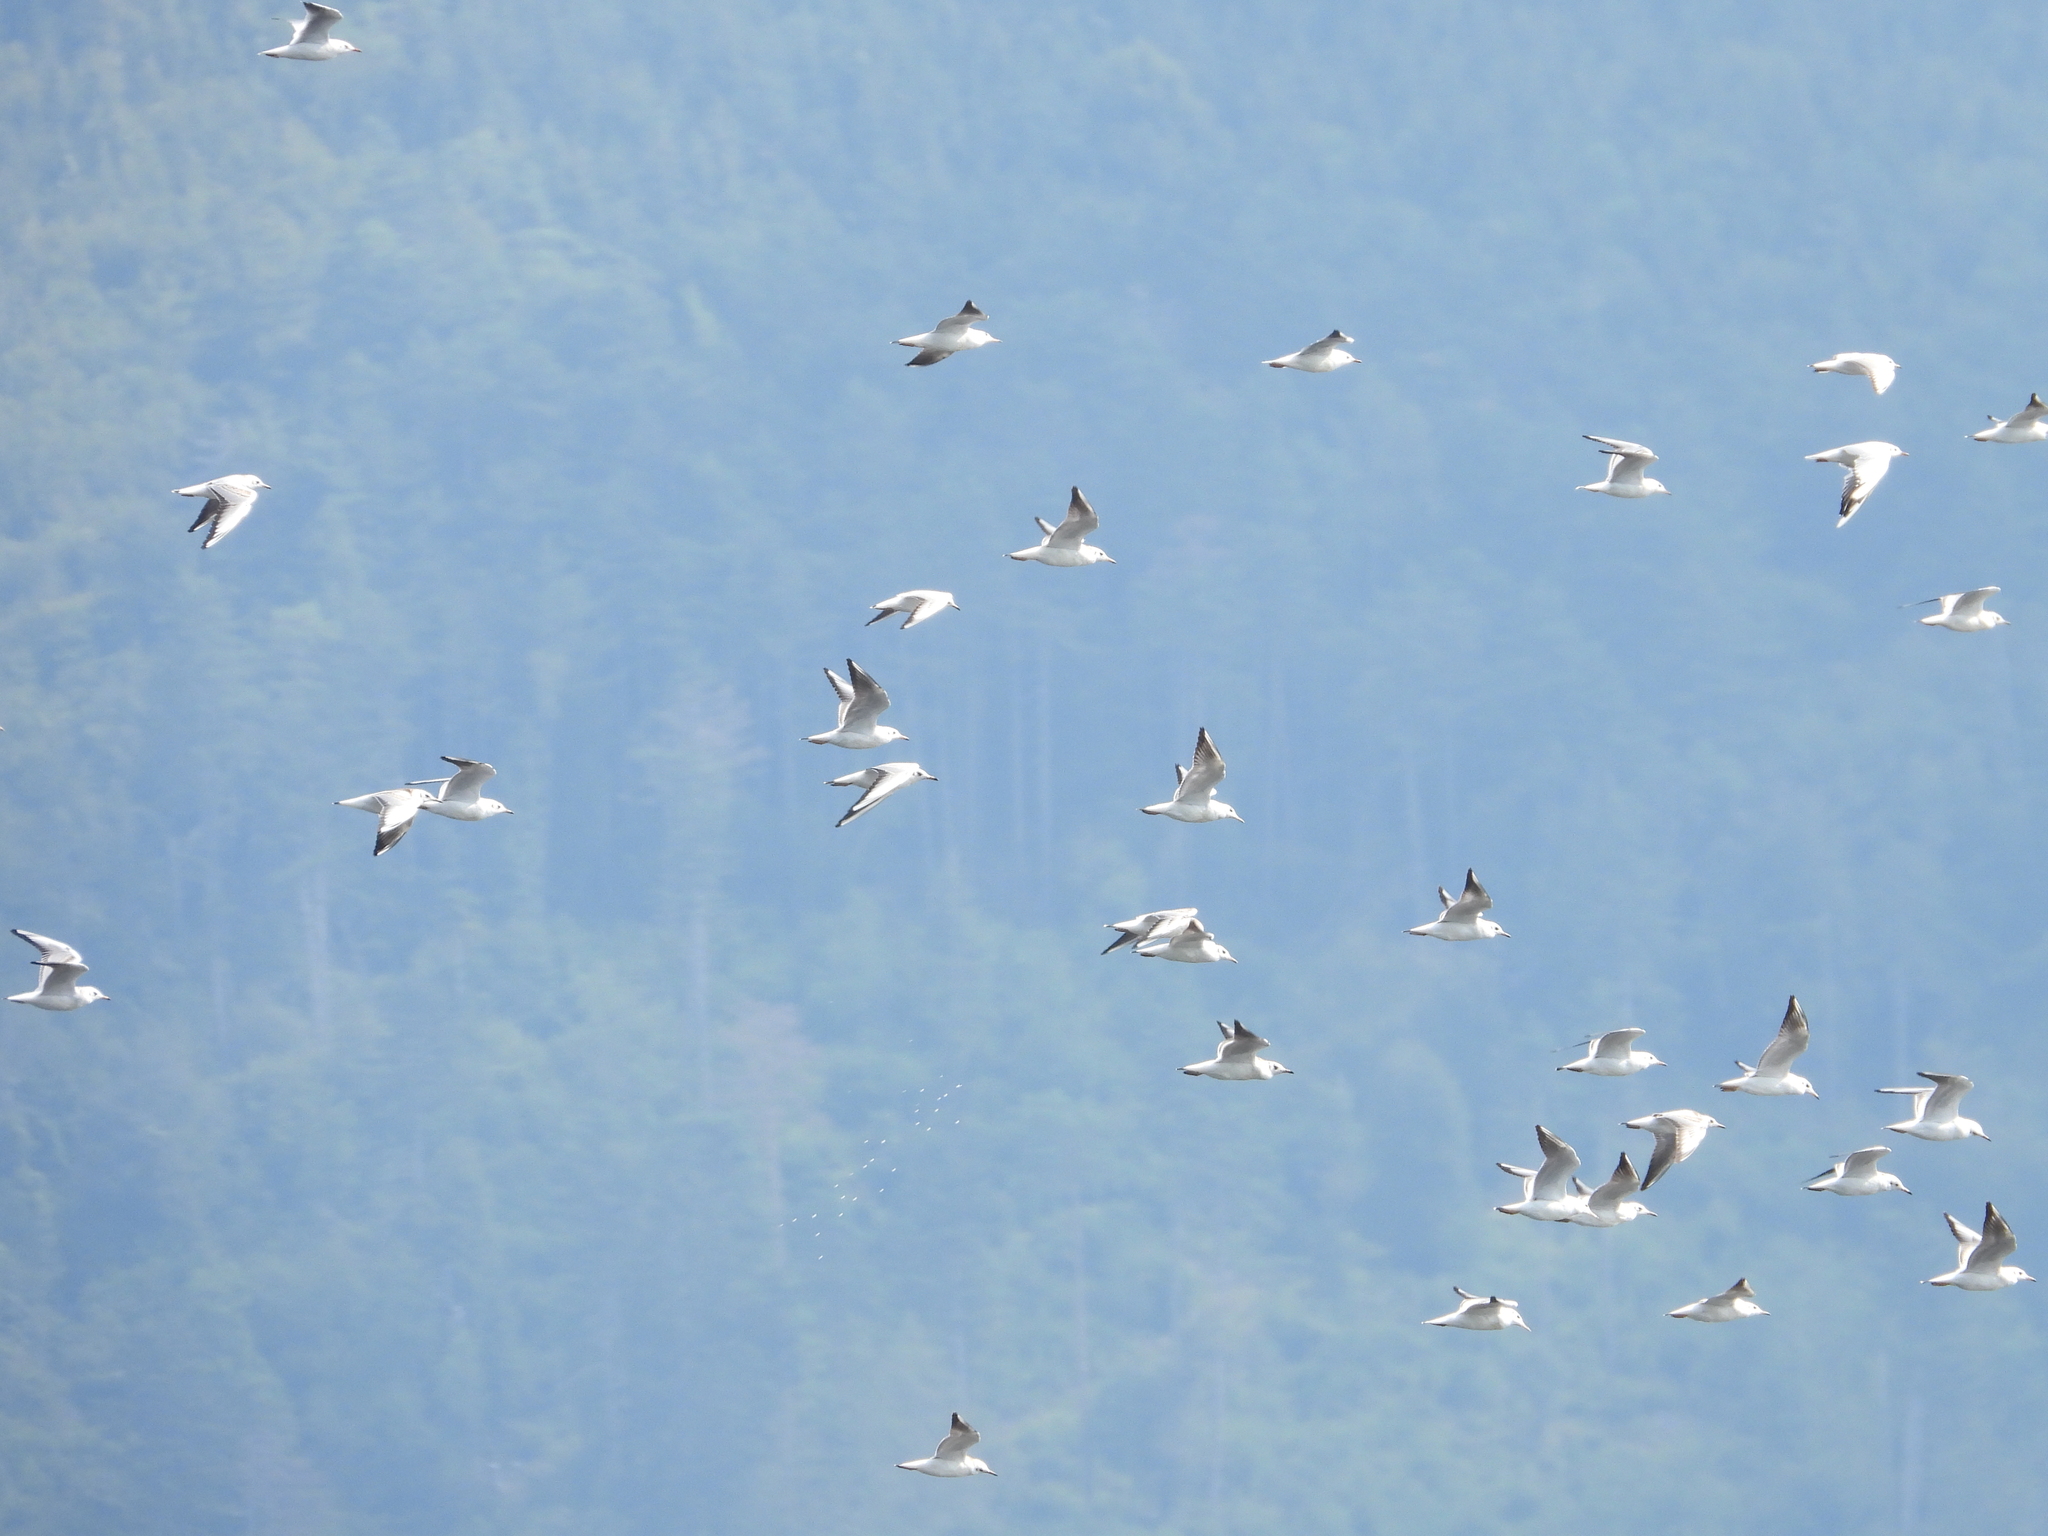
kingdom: Animalia
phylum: Chordata
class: Aves
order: Charadriiformes
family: Laridae
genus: Chroicocephalus
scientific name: Chroicocephalus ridibundus
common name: Black-headed gull
